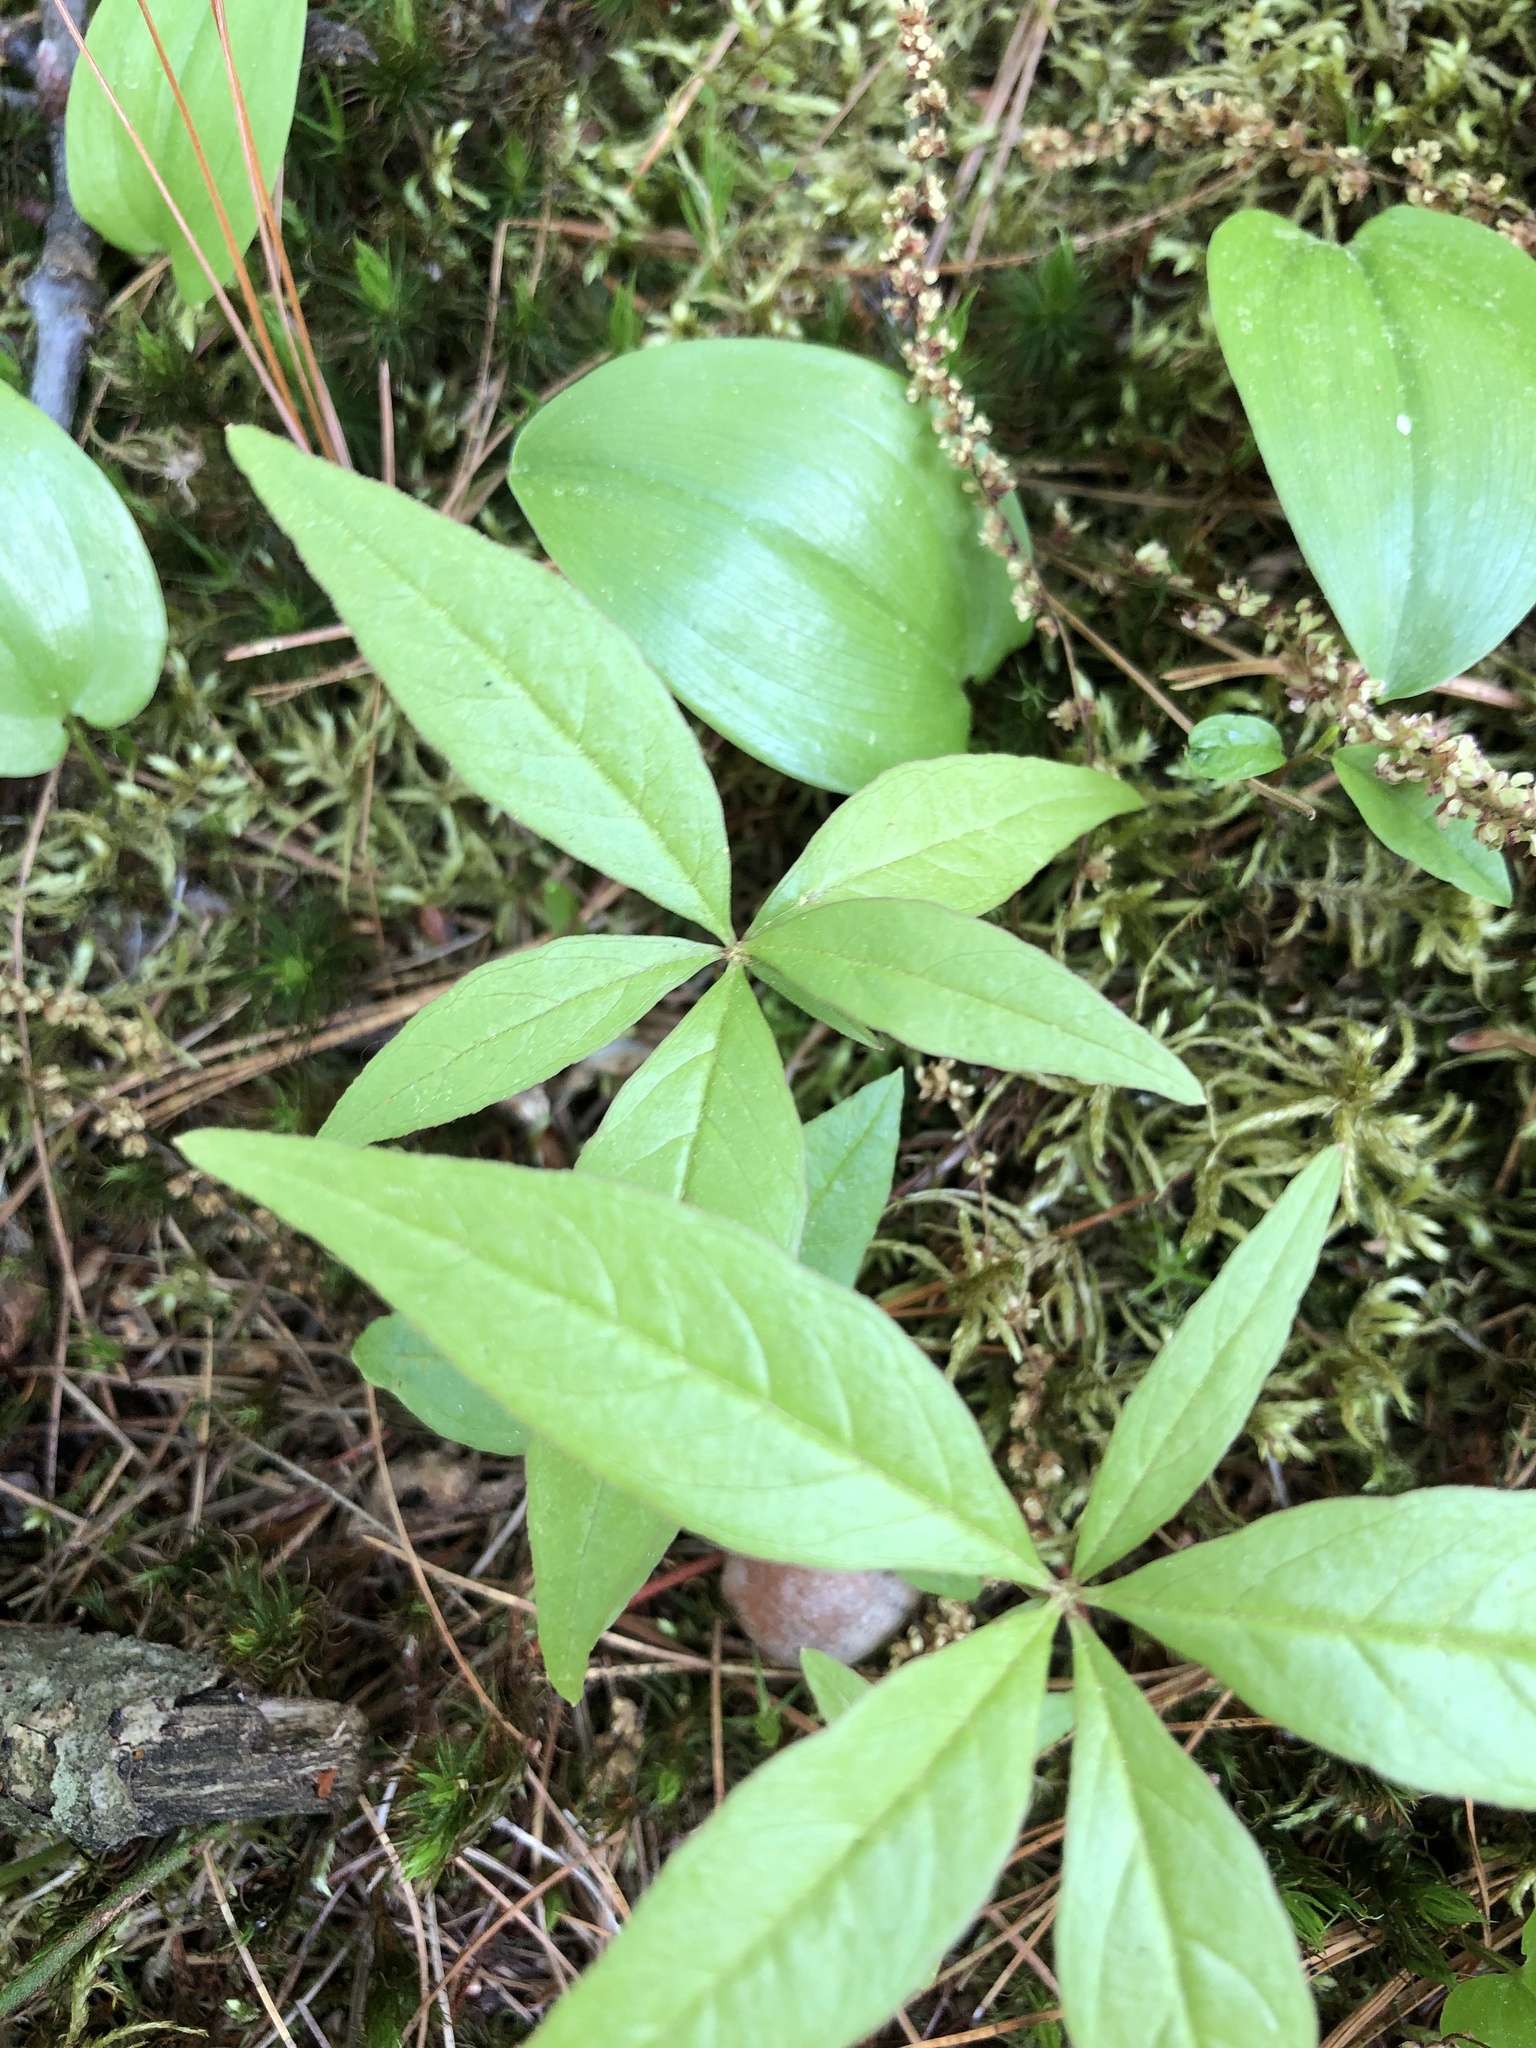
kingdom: Plantae
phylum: Tracheophyta
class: Magnoliopsida
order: Ericales
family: Primulaceae
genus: Lysimachia
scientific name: Lysimachia borealis
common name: American starflower
